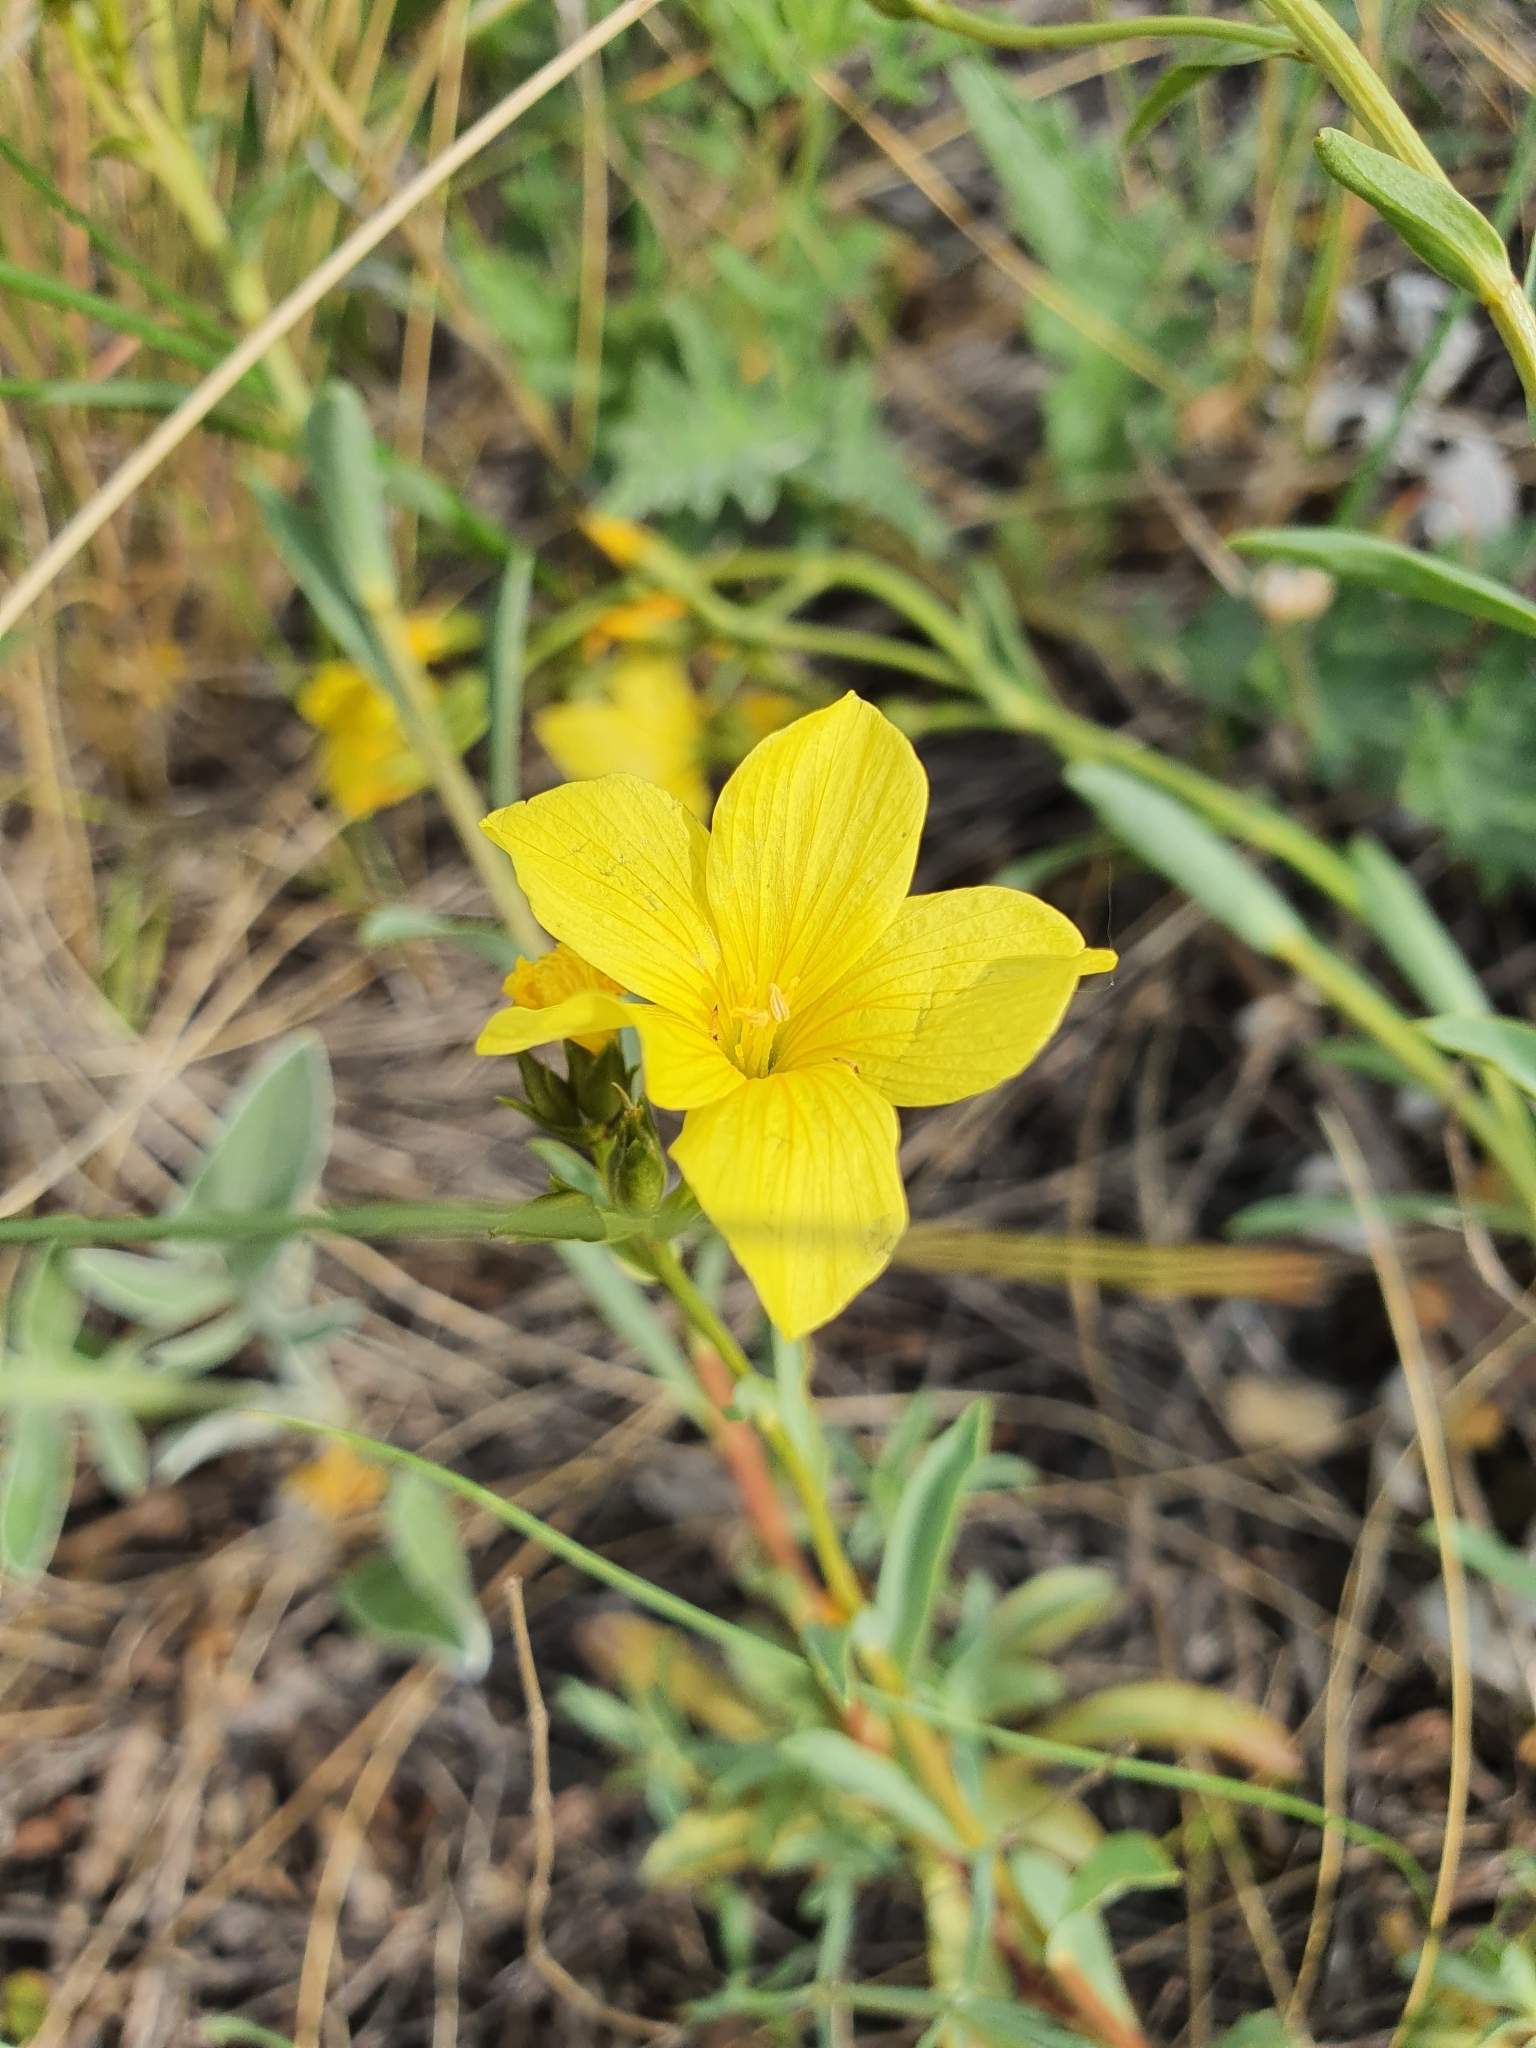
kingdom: Plantae
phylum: Tracheophyta
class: Magnoliopsida
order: Malpighiales
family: Linaceae
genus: Linum
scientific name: Linum ucranicum
